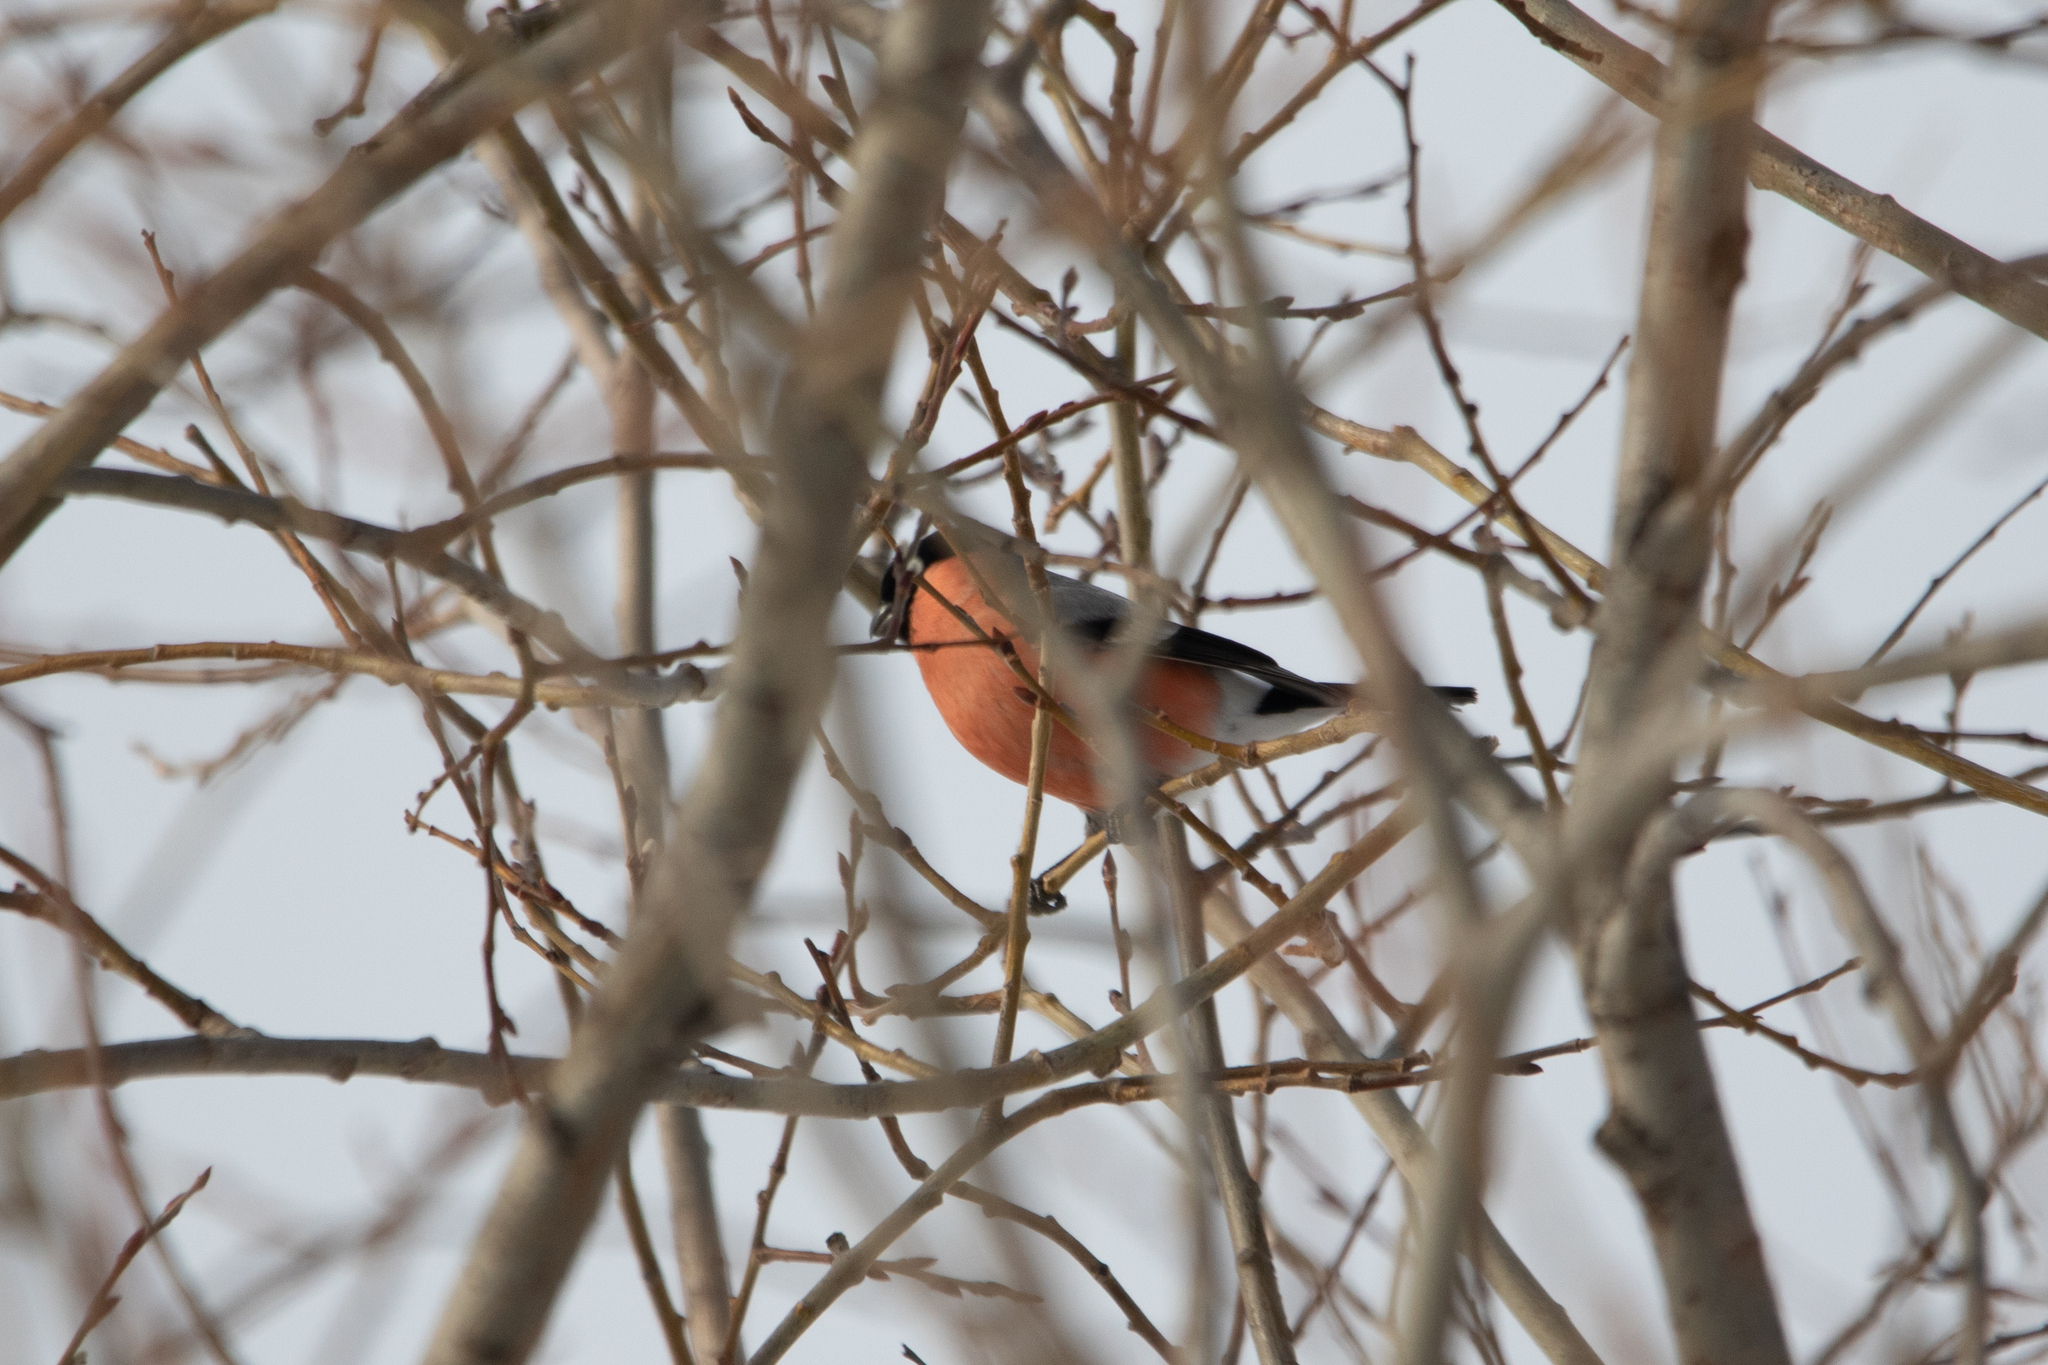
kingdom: Animalia
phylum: Chordata
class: Aves
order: Passeriformes
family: Fringillidae
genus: Pyrrhula
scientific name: Pyrrhula pyrrhula
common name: Eurasian bullfinch
